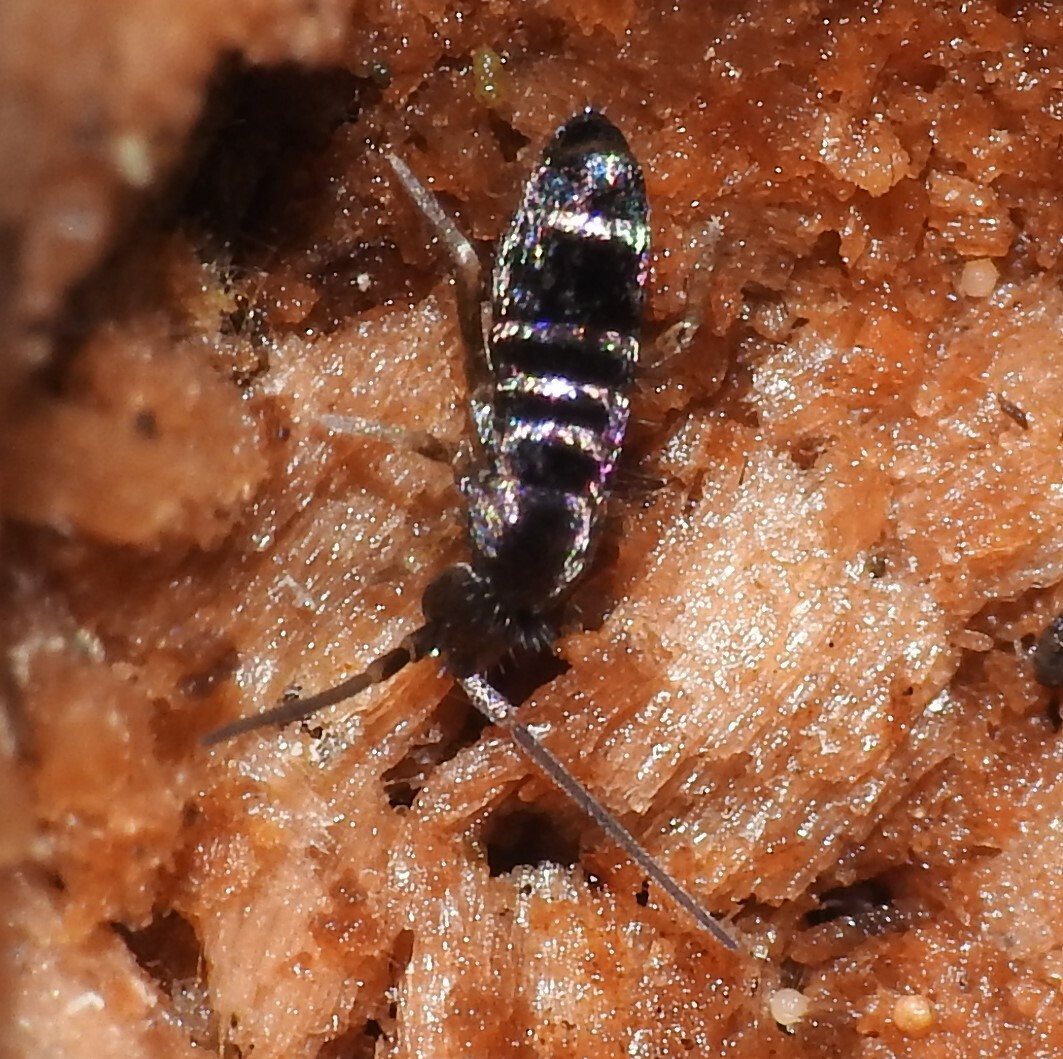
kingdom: Animalia
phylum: Arthropoda
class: Collembola
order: Entomobryomorpha
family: Tomoceridae
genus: Tomocerus
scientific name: Tomocerus vulgaris
